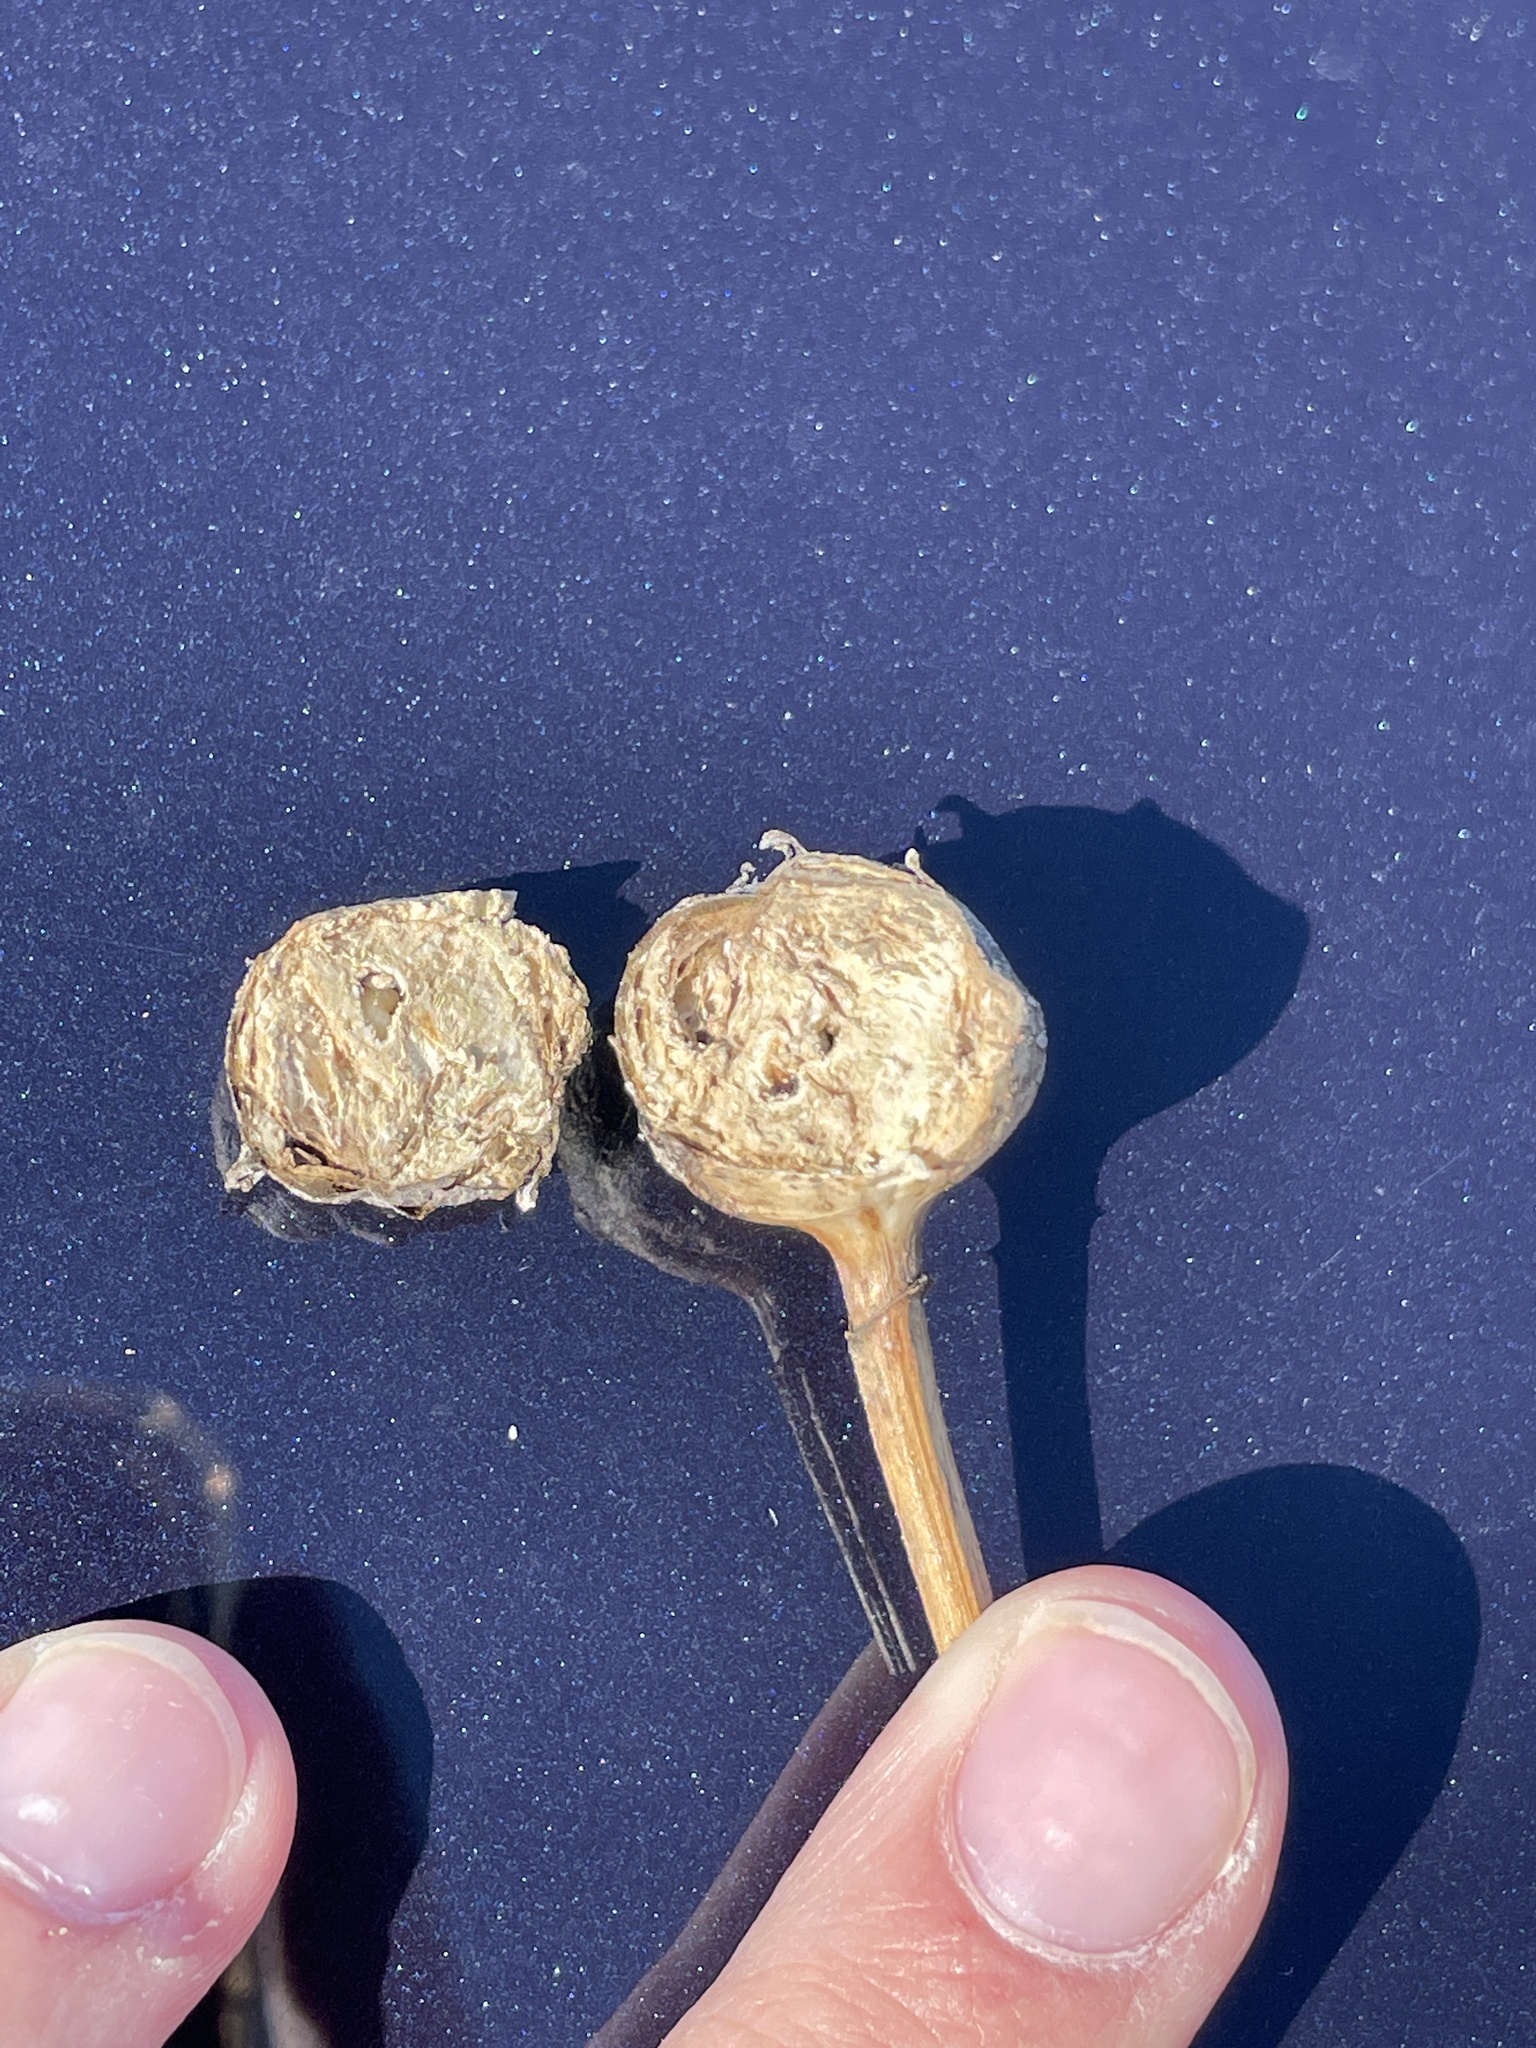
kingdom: Animalia
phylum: Arthropoda
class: Insecta
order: Hymenoptera
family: Cynipidae
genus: Antistrophus
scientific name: Antistrophus silphii
